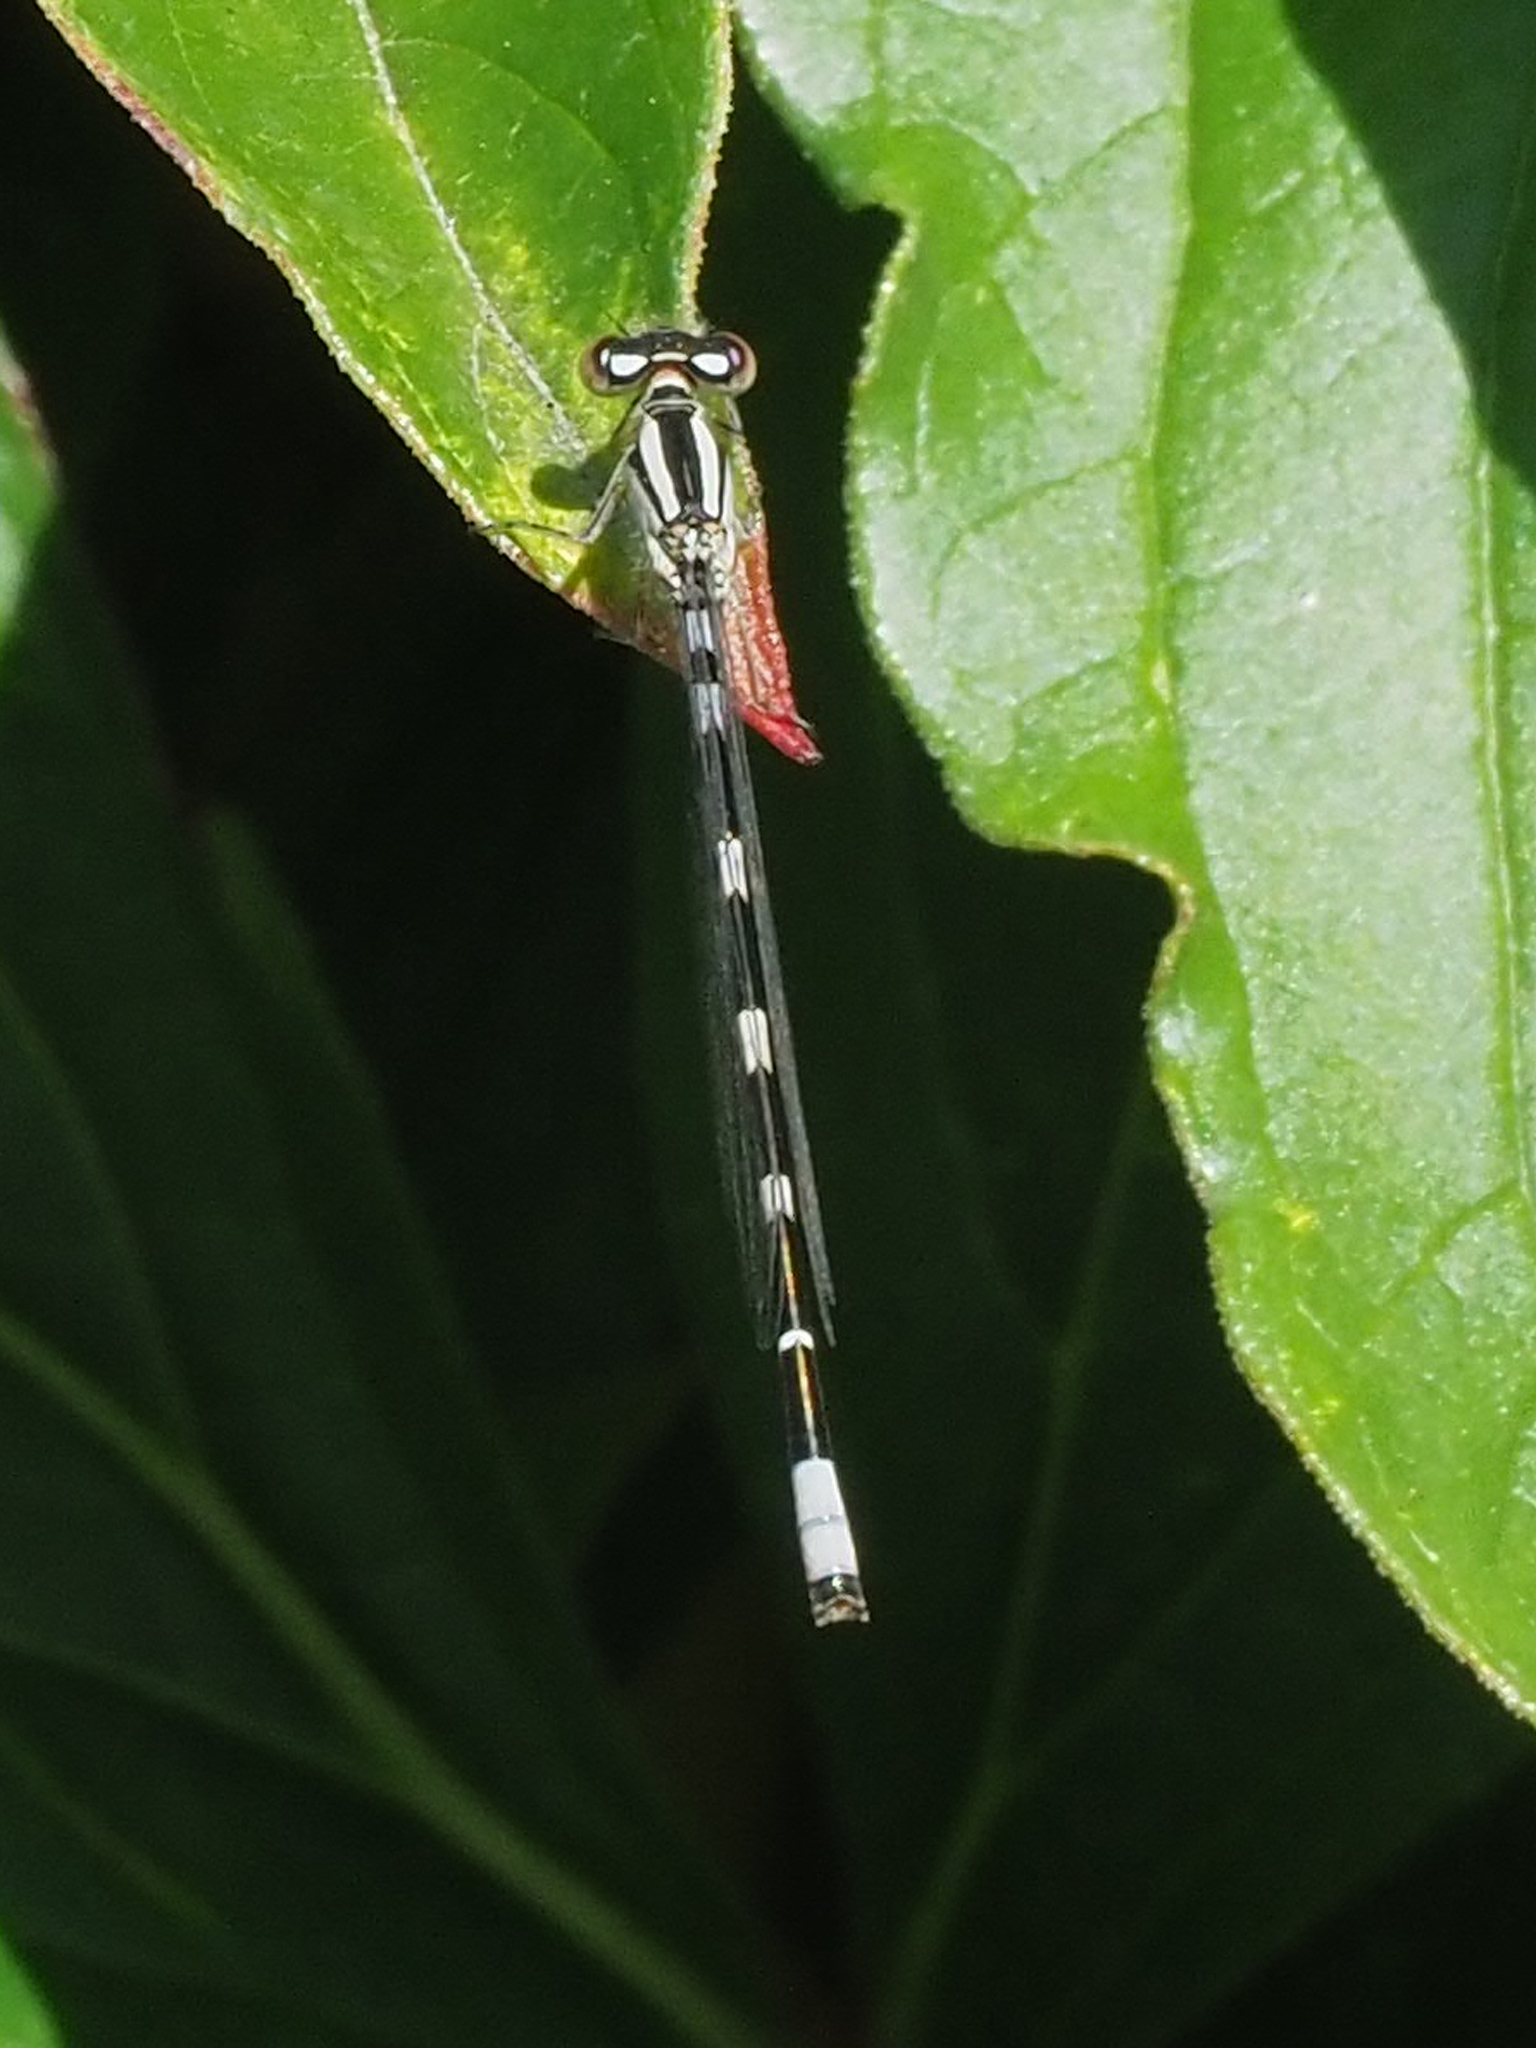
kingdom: Animalia
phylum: Arthropoda
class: Insecta
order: Odonata
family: Coenagrionidae
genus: Enallagma
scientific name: Enallagma carunculatum
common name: Tule bluet
